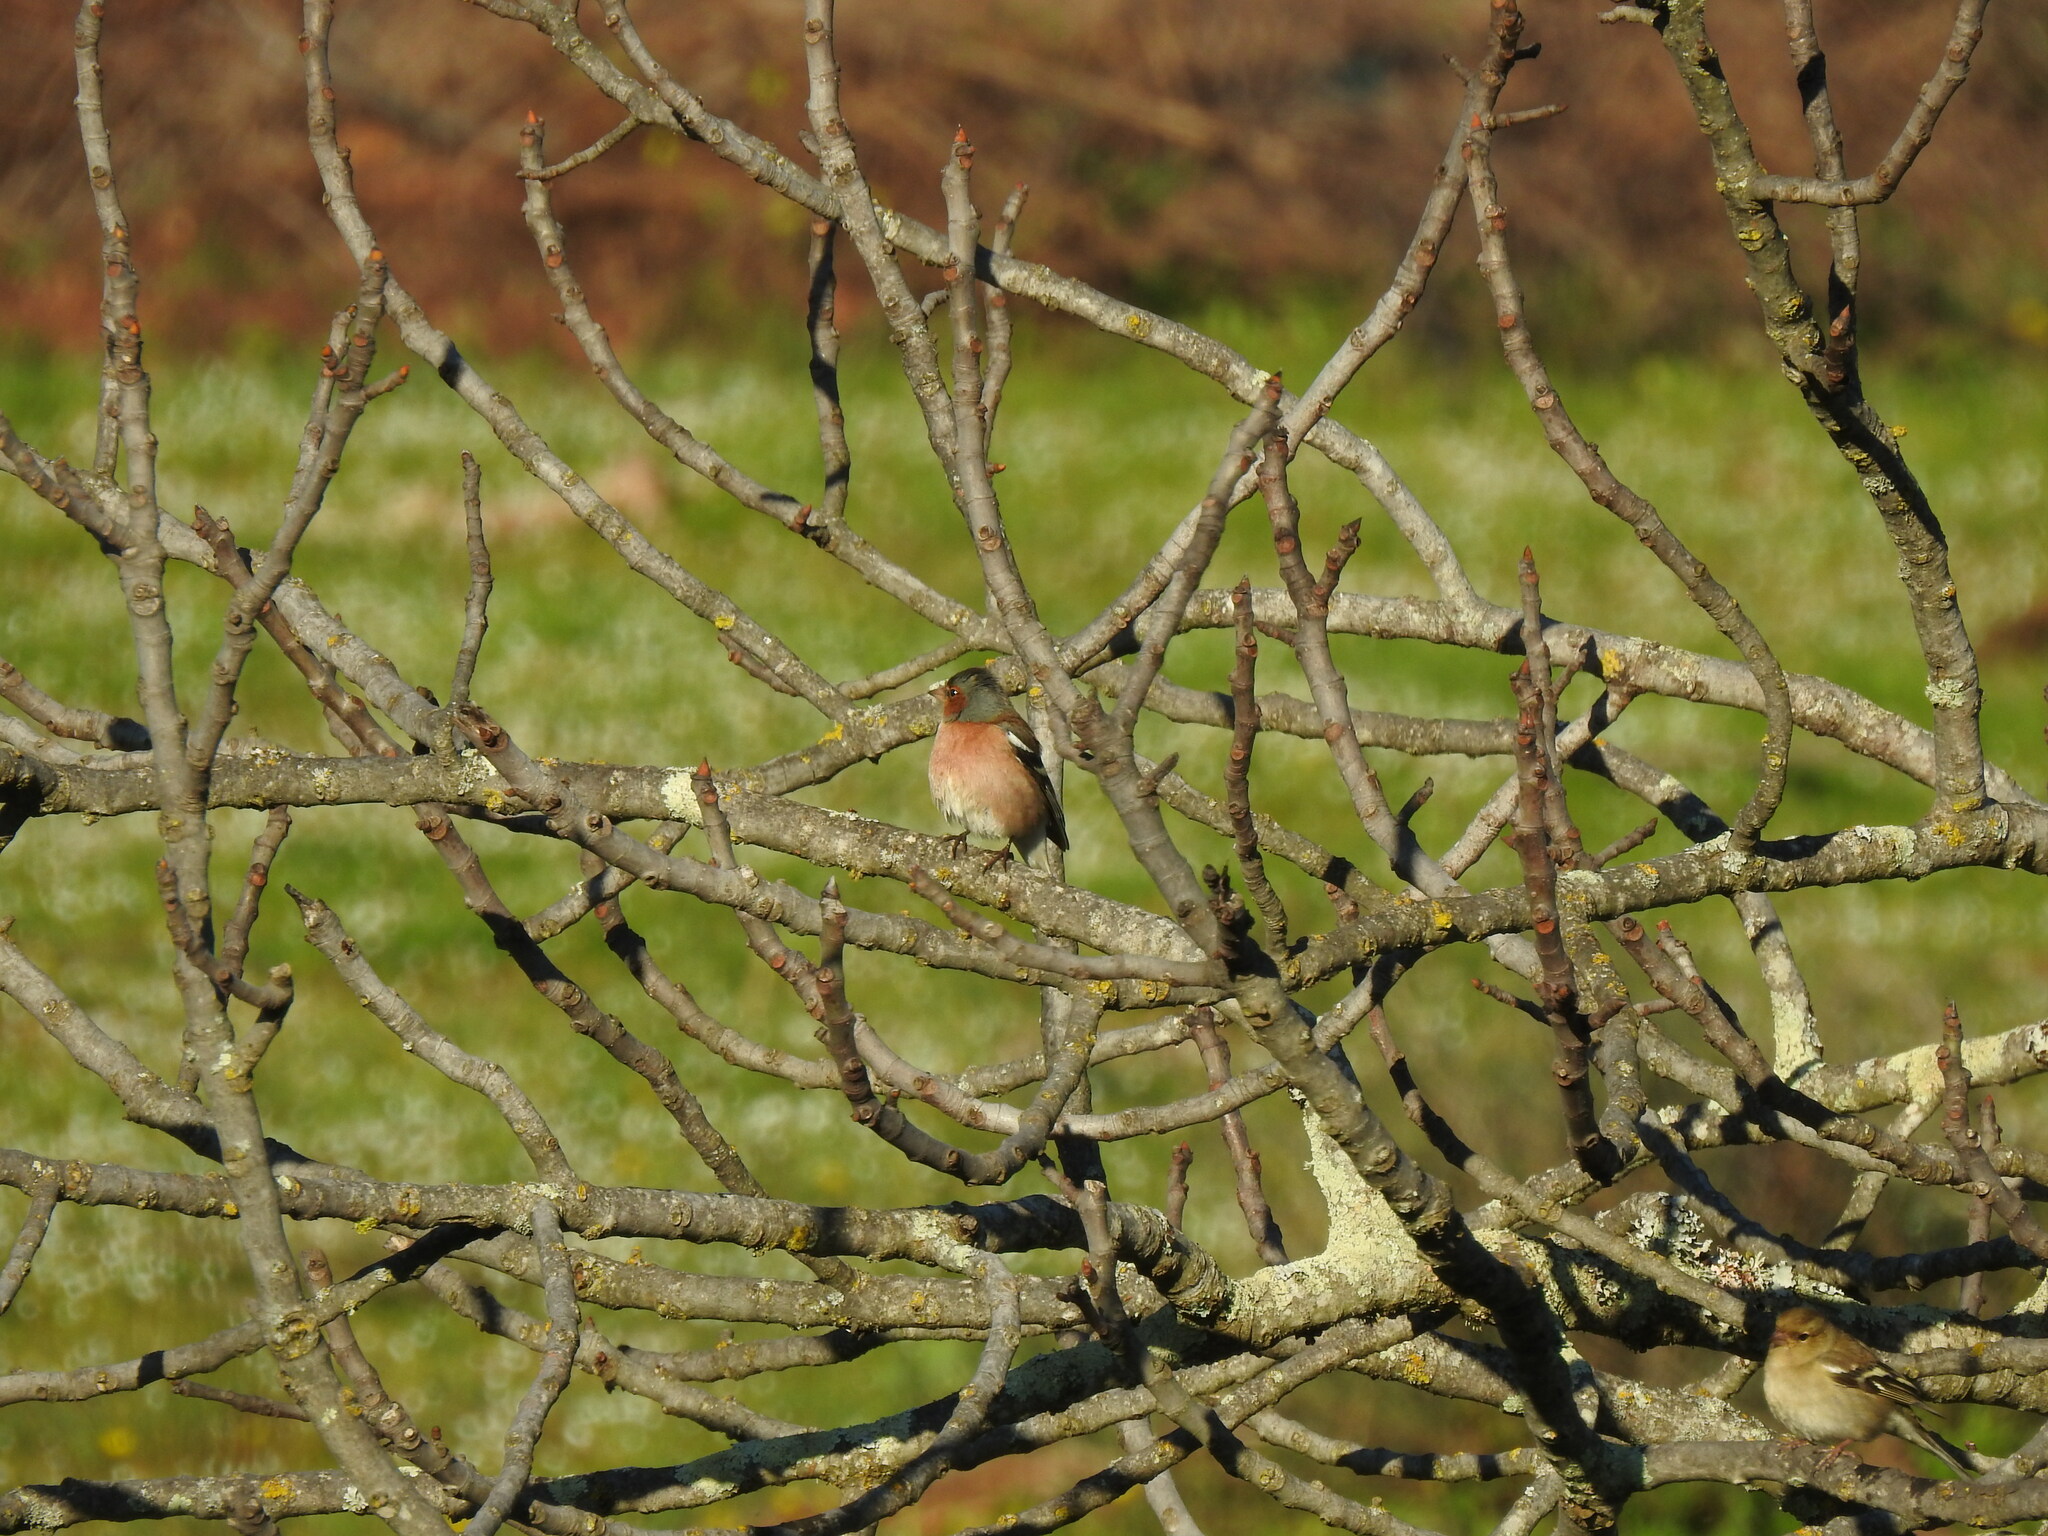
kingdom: Animalia
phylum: Chordata
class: Aves
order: Passeriformes
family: Fringillidae
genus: Fringilla
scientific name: Fringilla coelebs
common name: Common chaffinch
